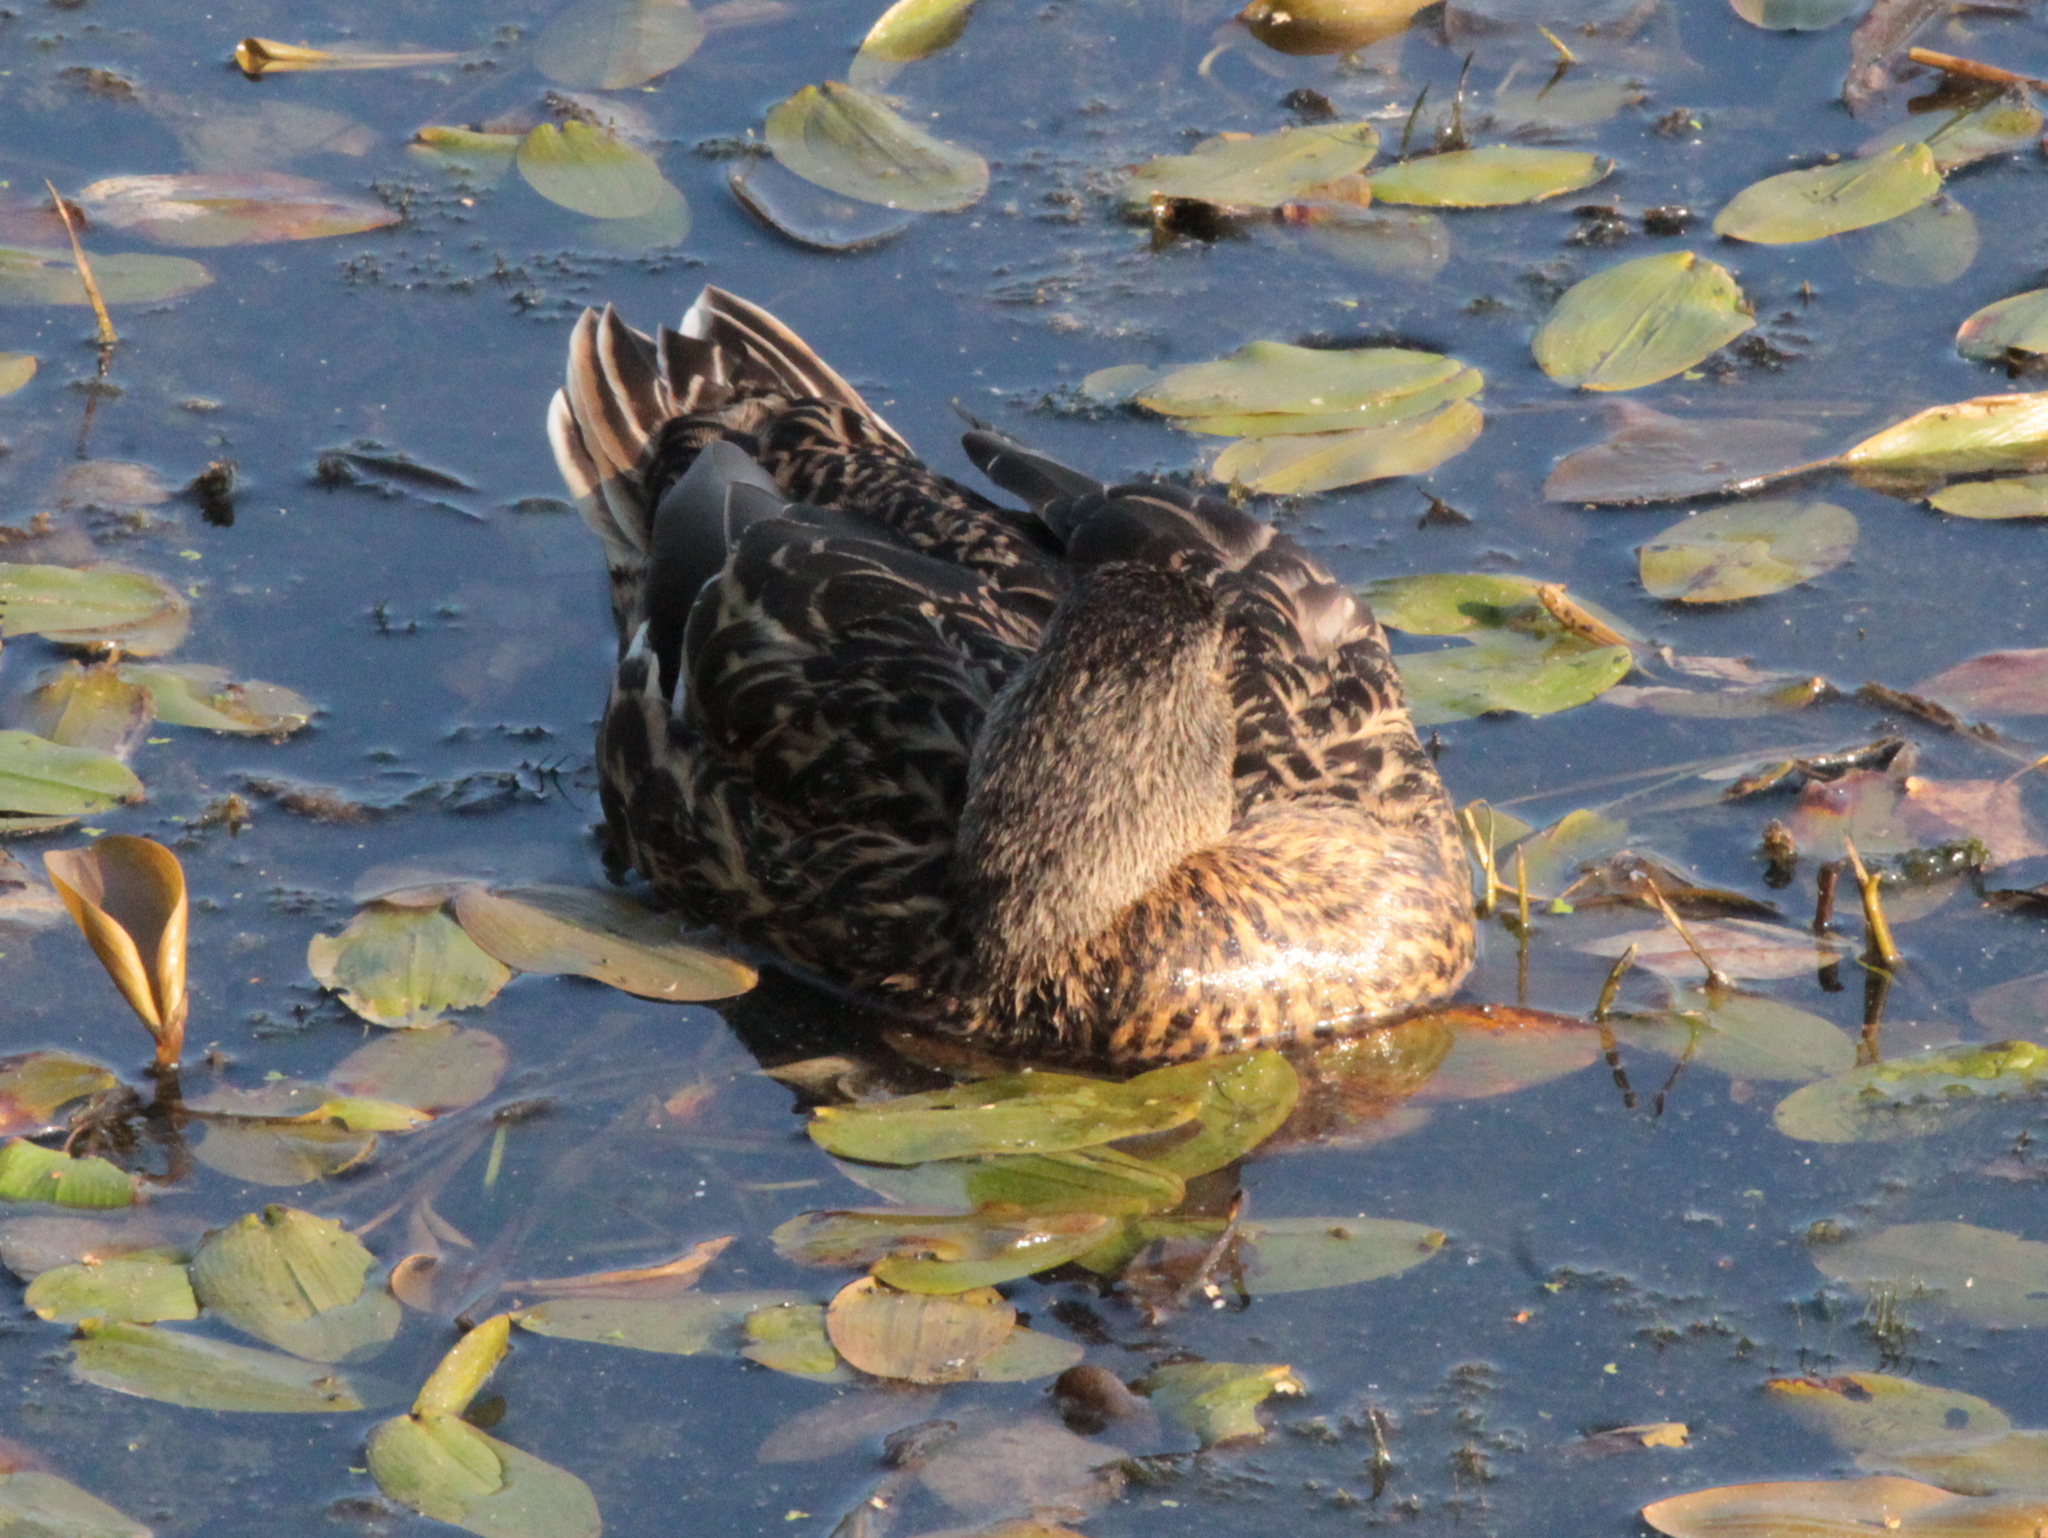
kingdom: Animalia
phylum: Chordata
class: Aves
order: Anseriformes
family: Anatidae
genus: Anas
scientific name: Anas platyrhynchos
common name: Mallard
